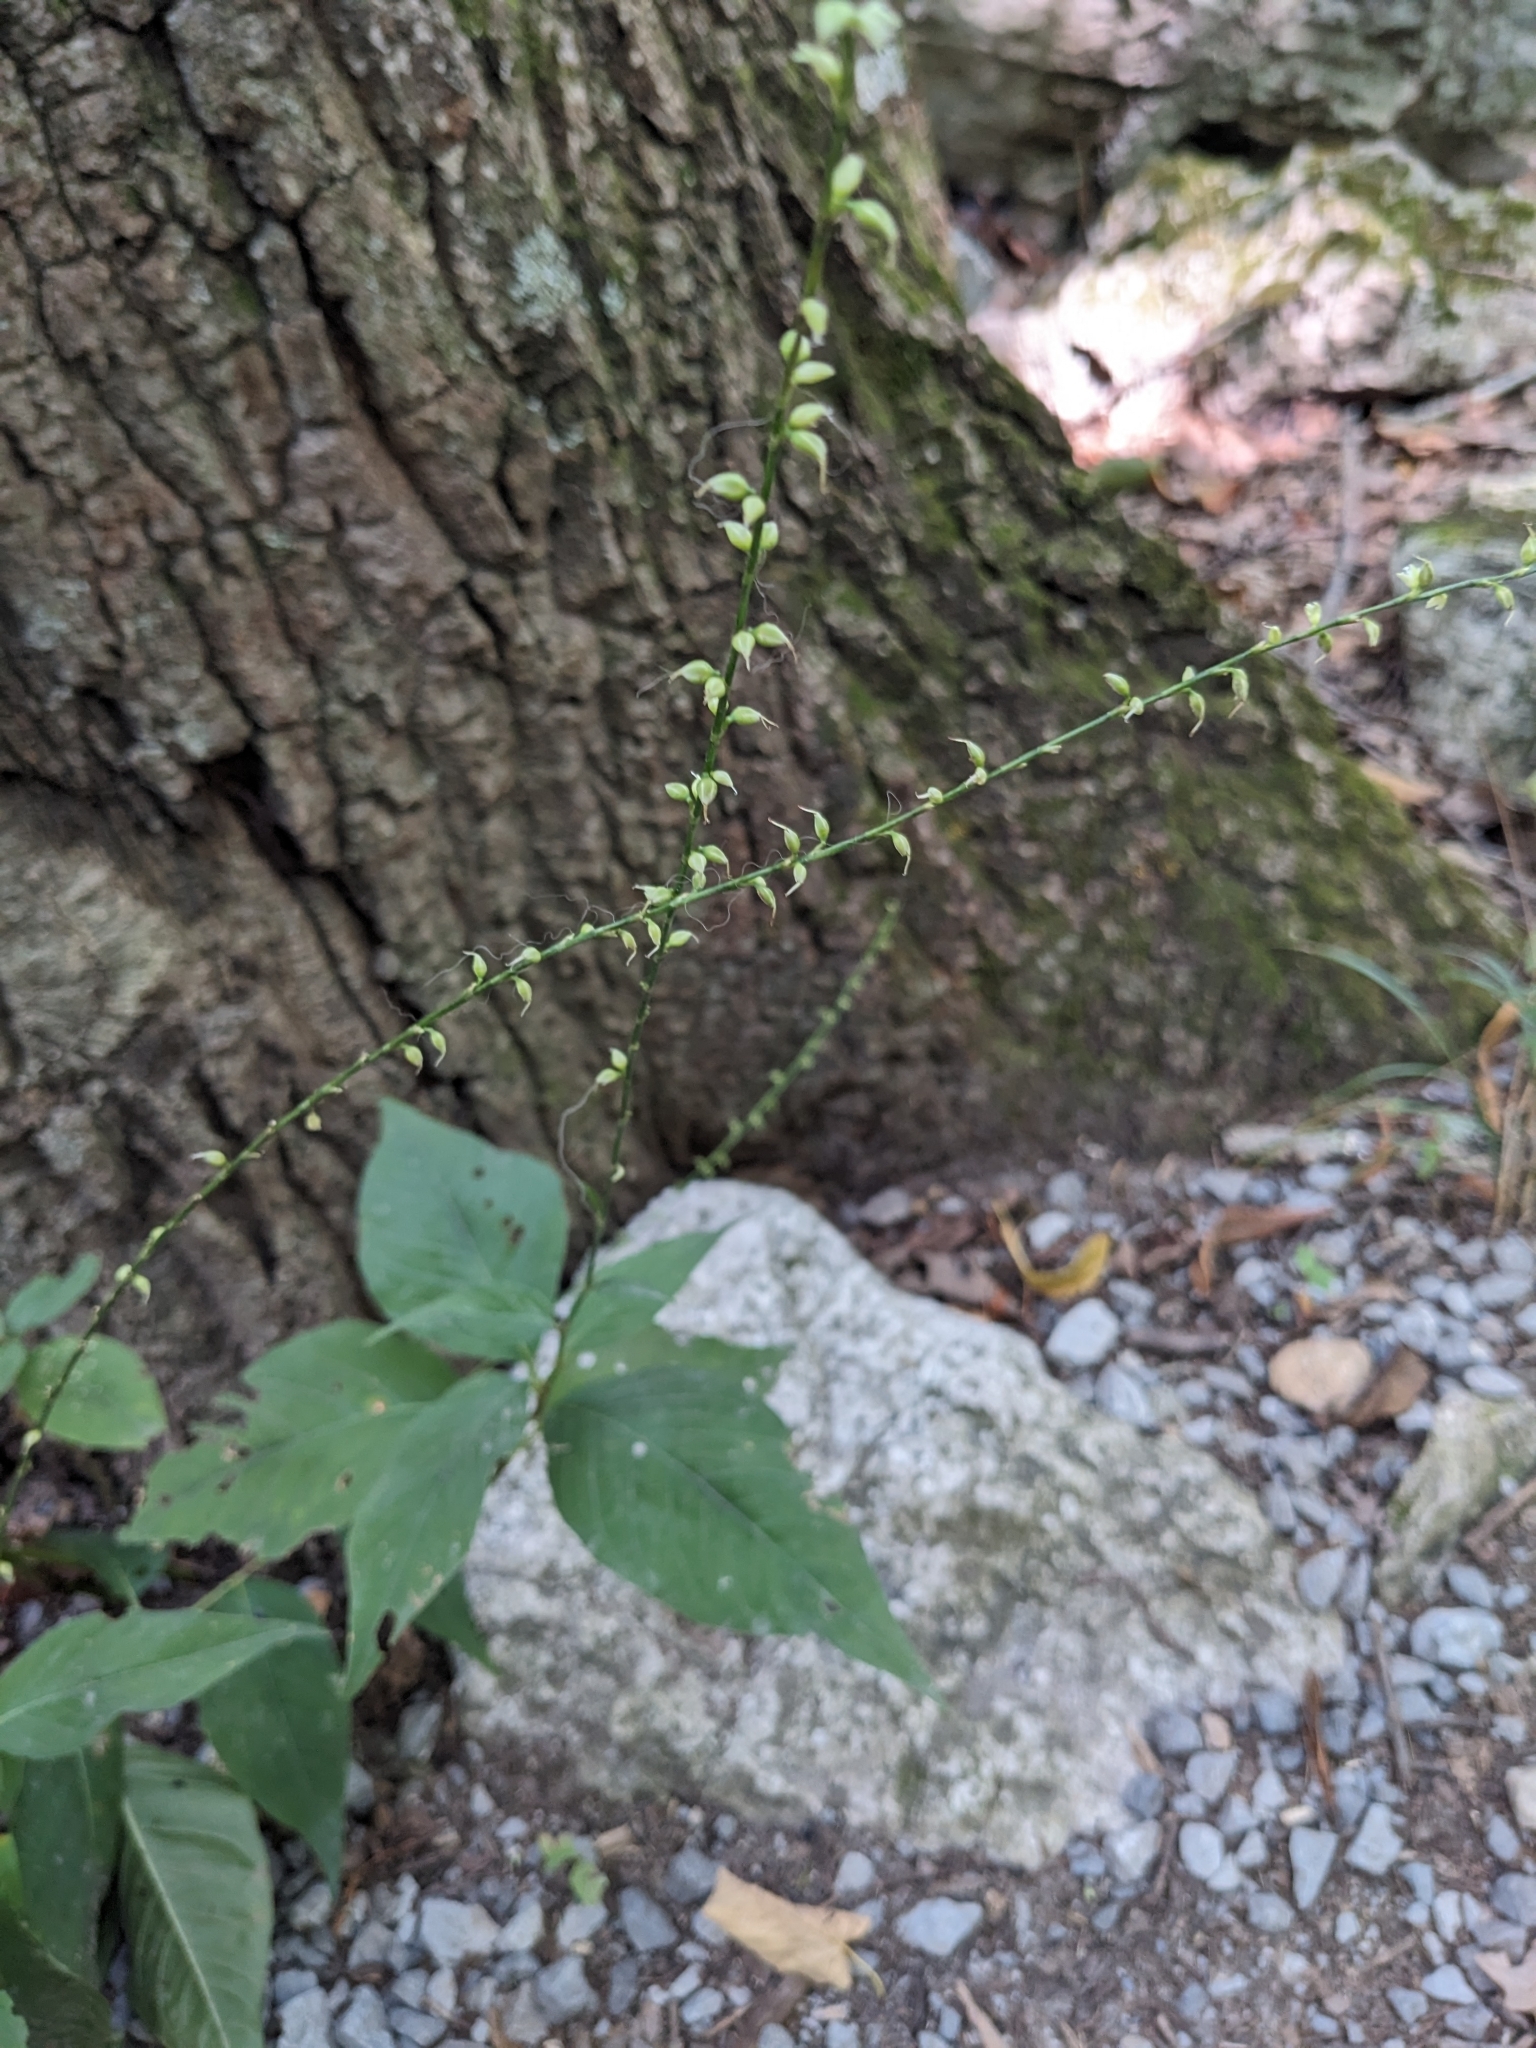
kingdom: Plantae
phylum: Tracheophyta
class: Magnoliopsida
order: Caryophyllales
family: Polygonaceae
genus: Persicaria
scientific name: Persicaria virginiana
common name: Jumpseed
